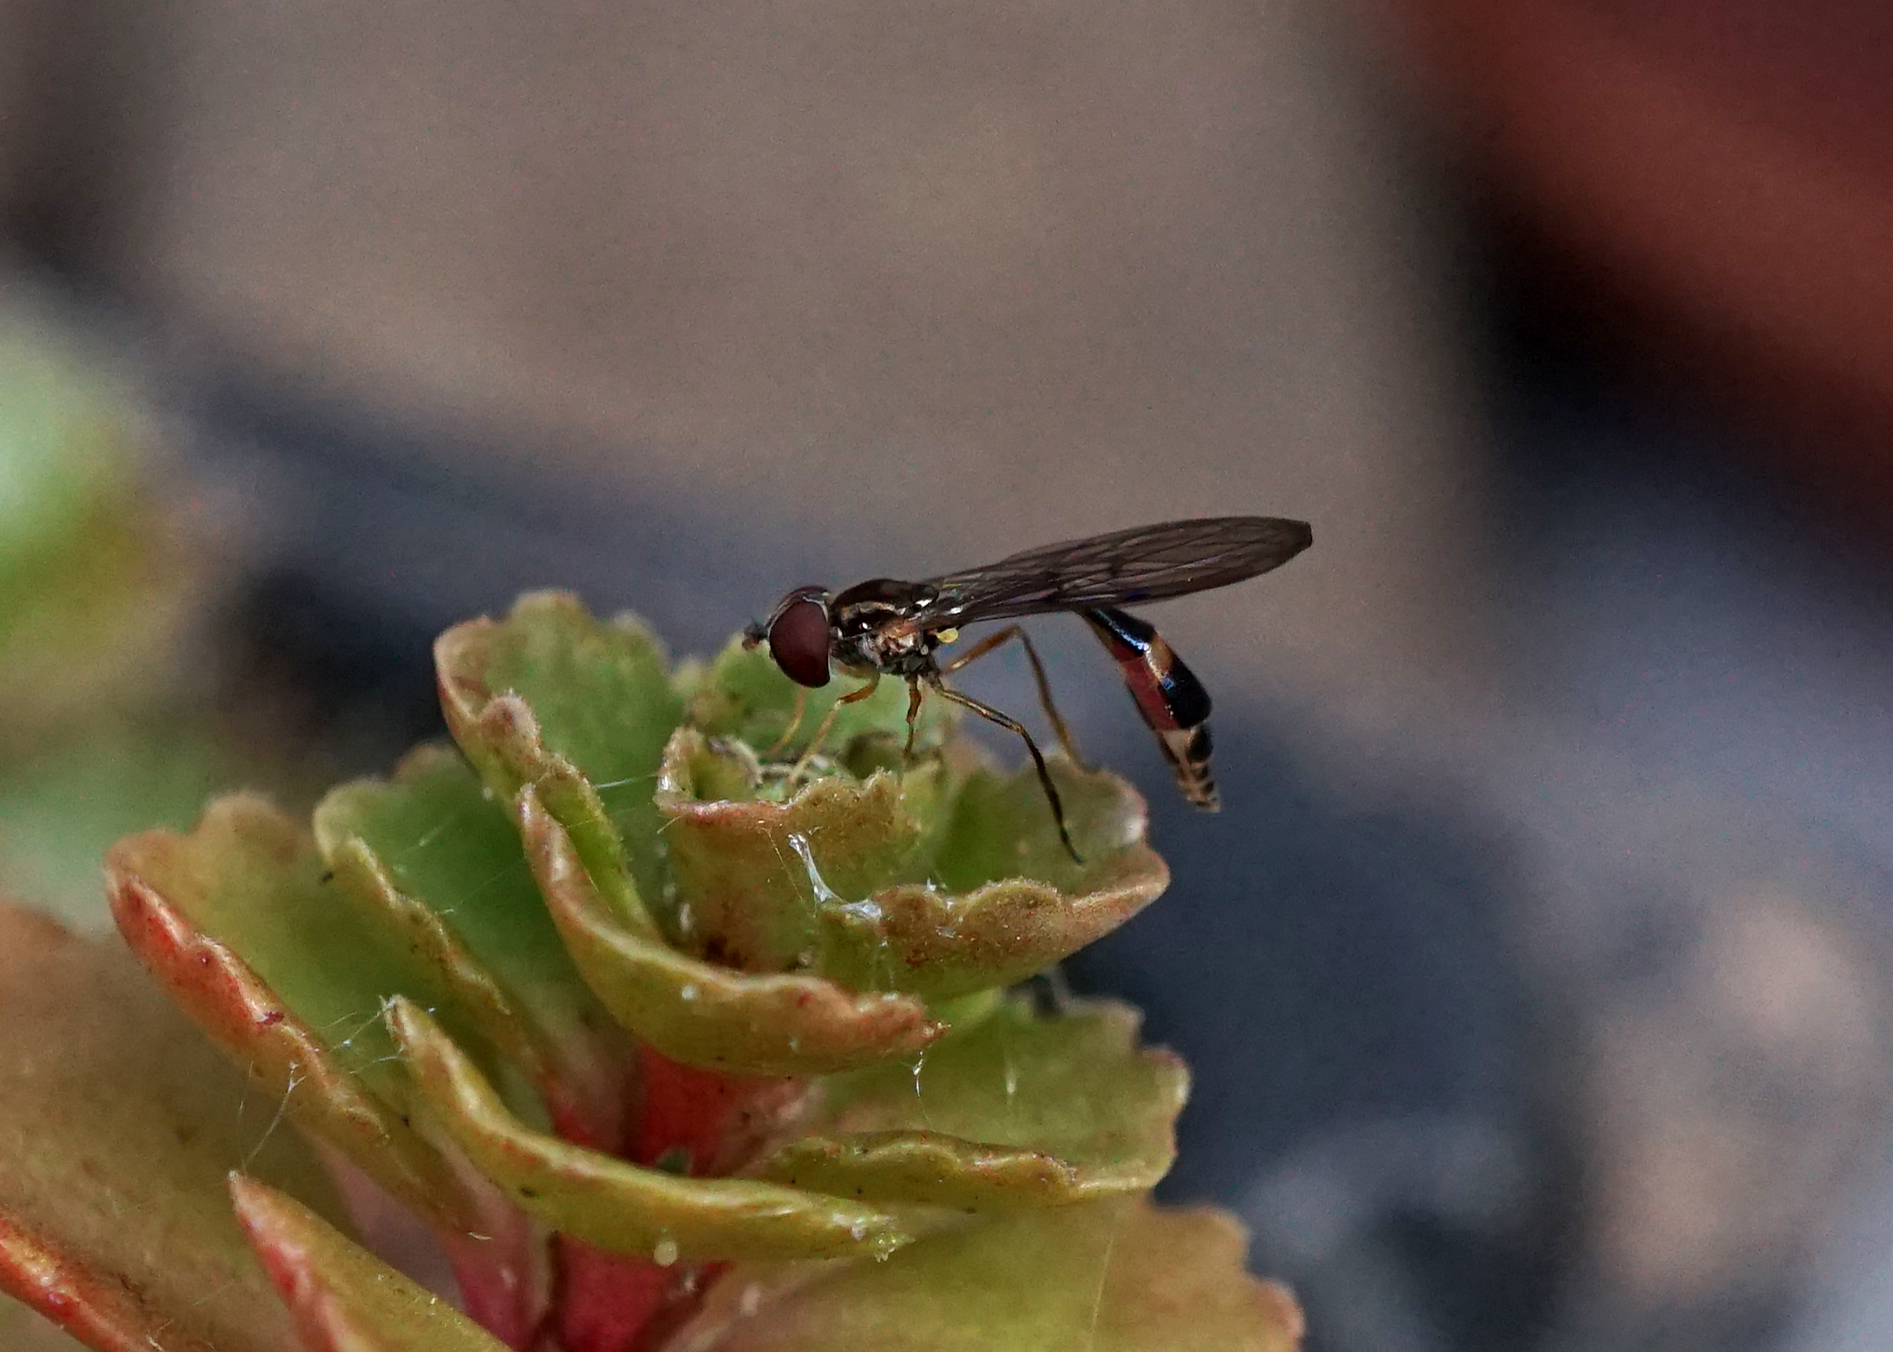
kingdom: Animalia
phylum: Arthropoda
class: Insecta
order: Diptera
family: Syrphidae
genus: Baccha
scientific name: Baccha elongata
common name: Common dainty
